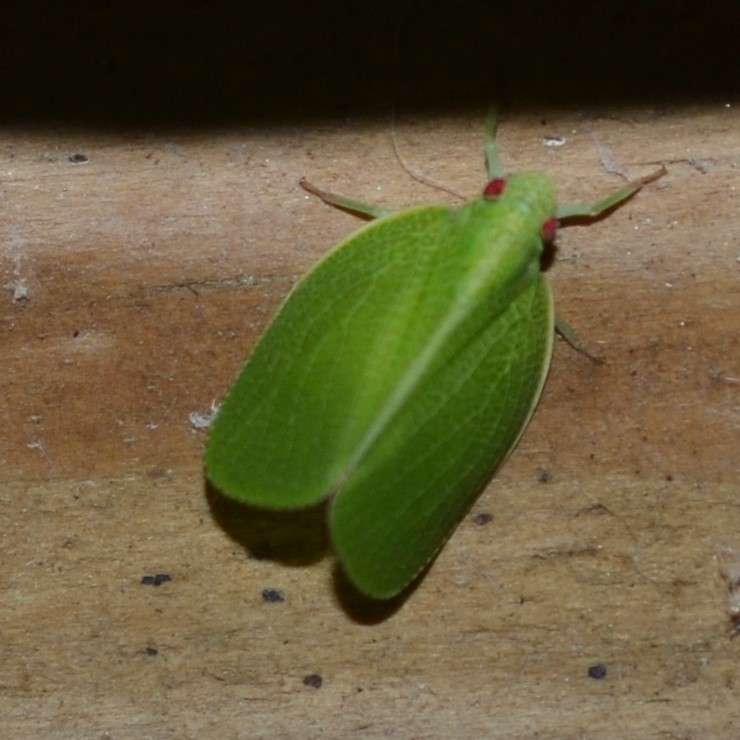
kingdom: Animalia
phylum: Arthropoda
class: Insecta
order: Hemiptera
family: Acanaloniidae
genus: Acanalonia
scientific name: Acanalonia conica
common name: Green cone-headed planthopper
